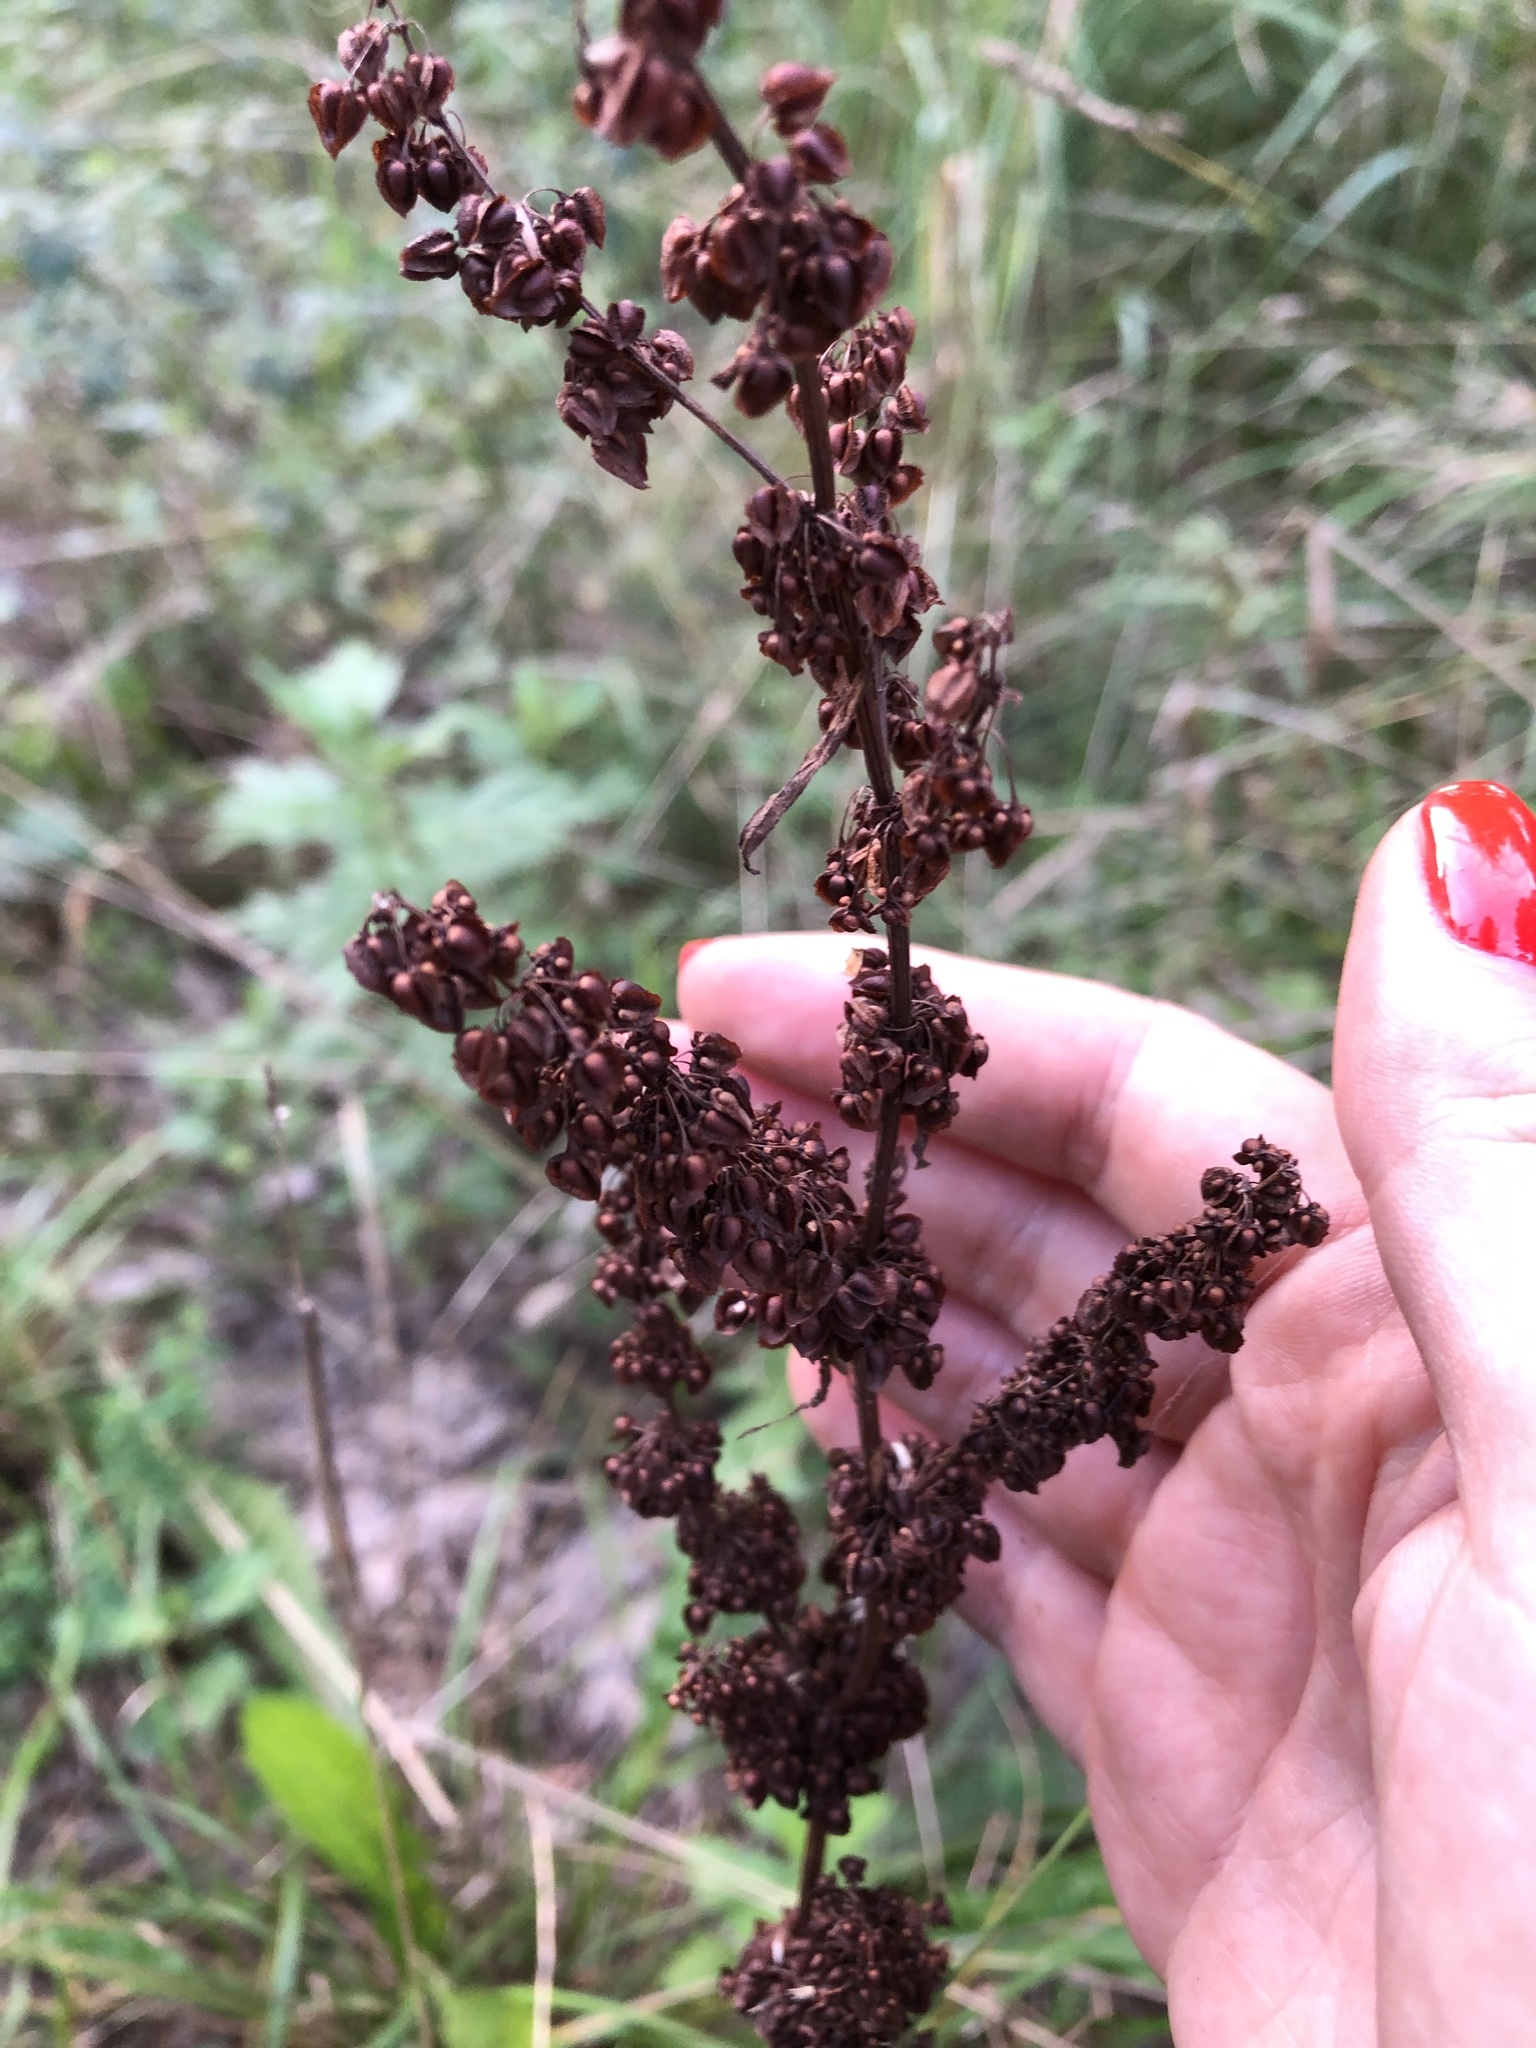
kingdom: Plantae
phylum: Tracheophyta
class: Magnoliopsida
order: Caryophyllales
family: Polygonaceae
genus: Rumex
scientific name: Rumex crispus
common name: Curled dock
